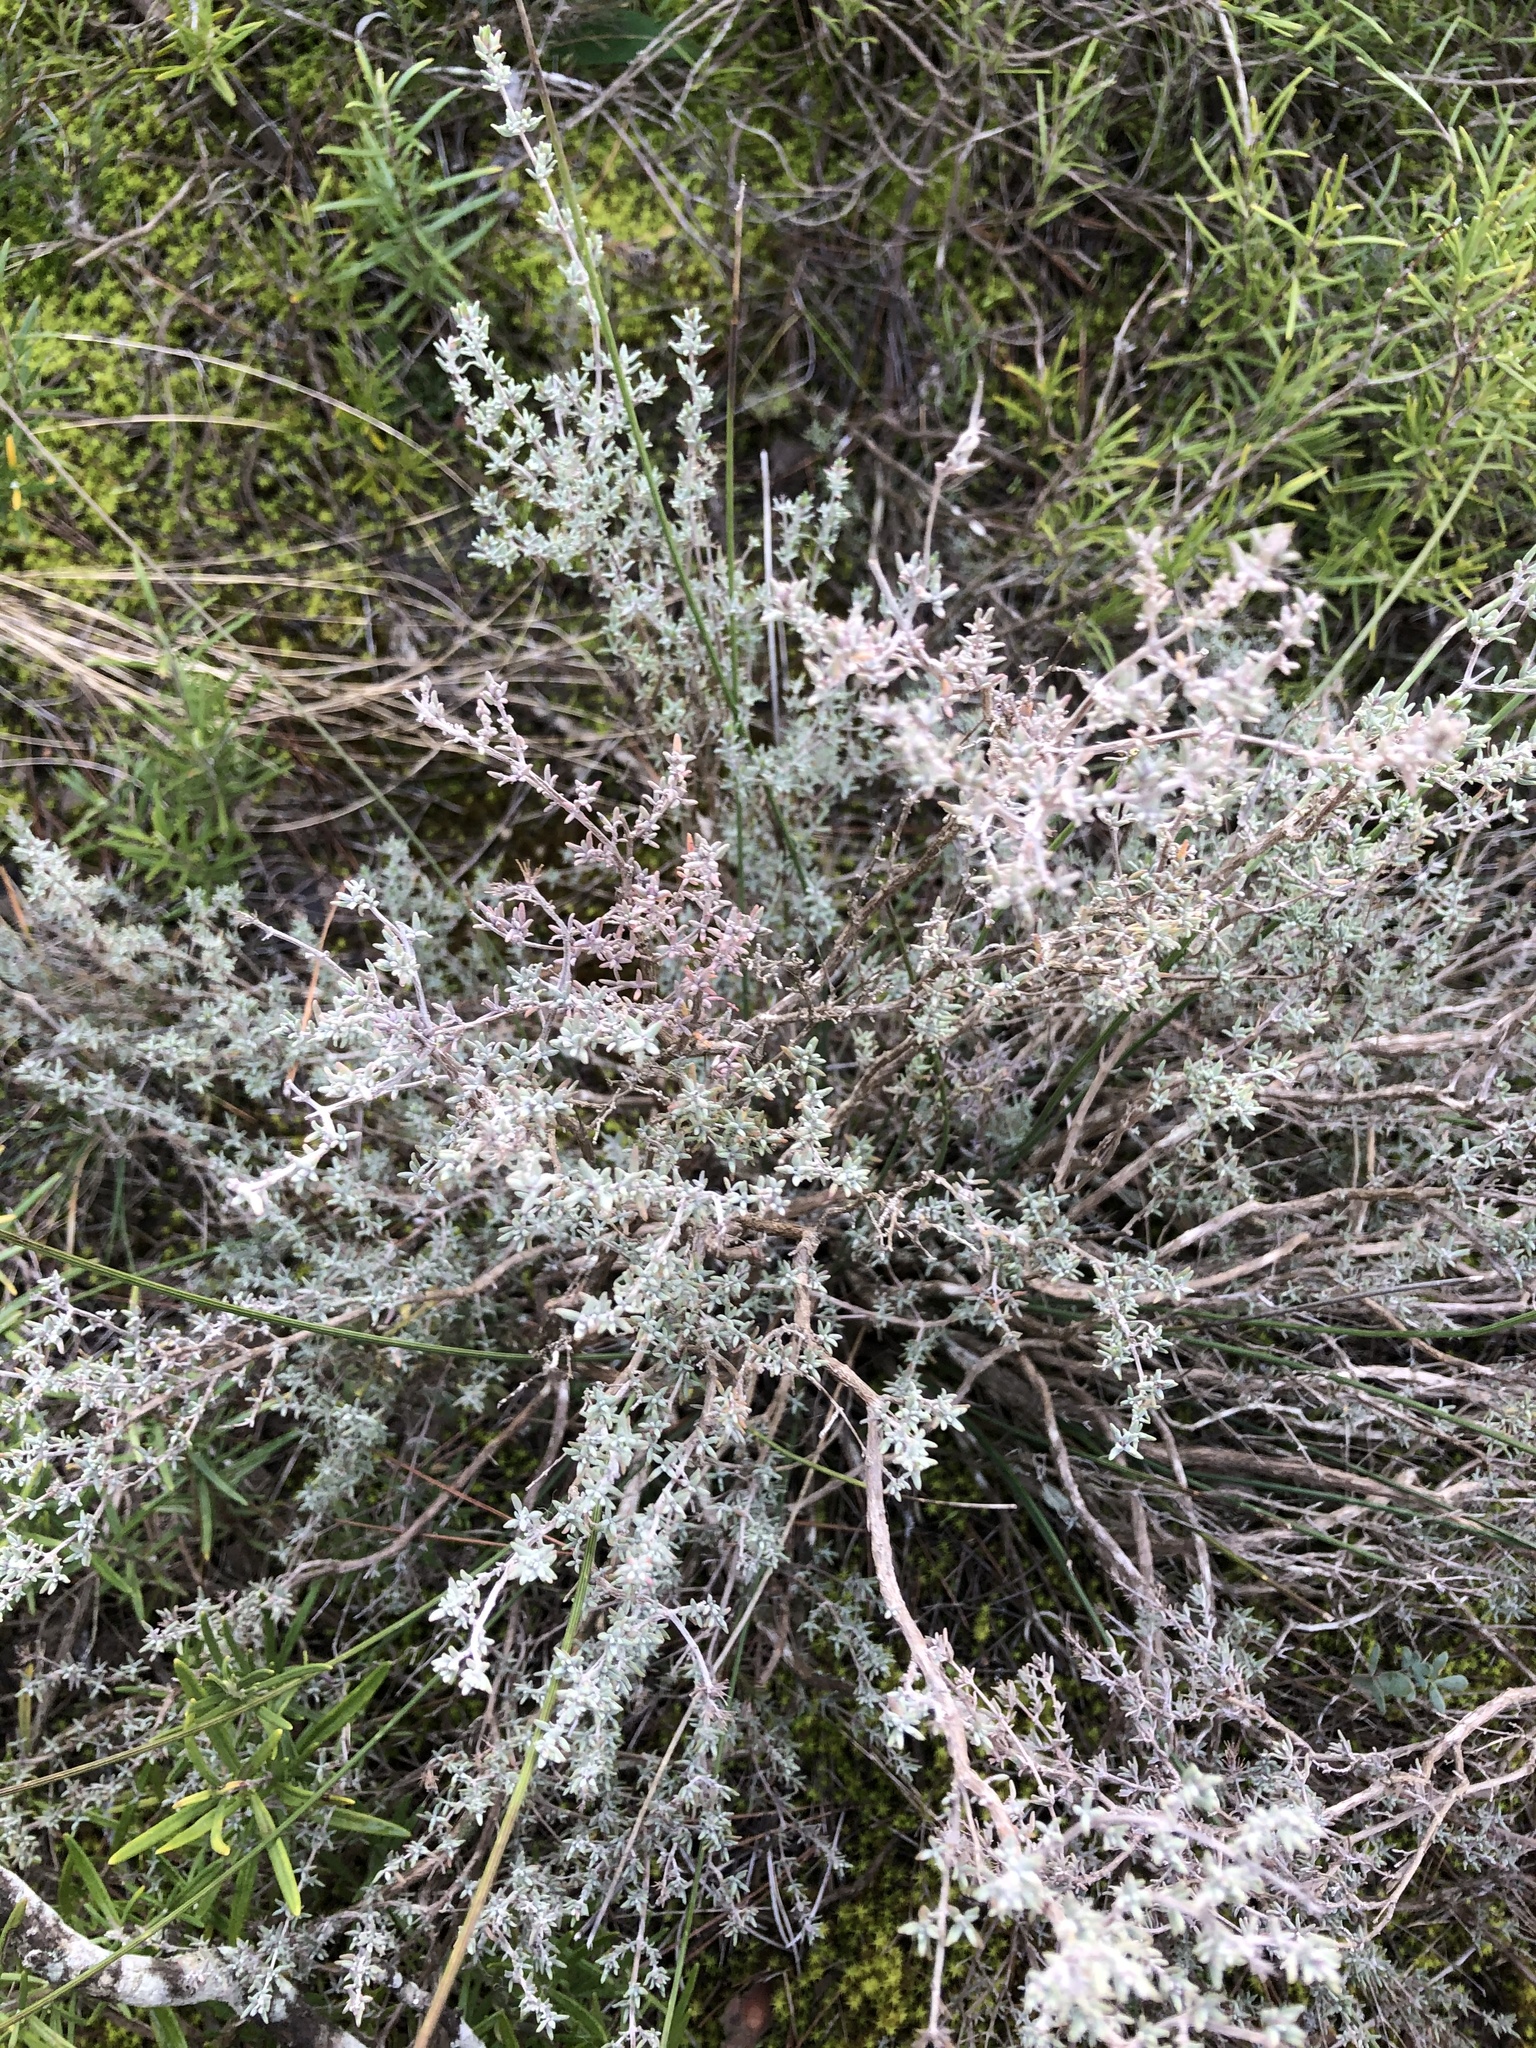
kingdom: Plantae
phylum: Tracheophyta
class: Magnoliopsida
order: Lamiales
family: Lamiaceae
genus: Thymus
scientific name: Thymus vulgaris
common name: Garden thyme
